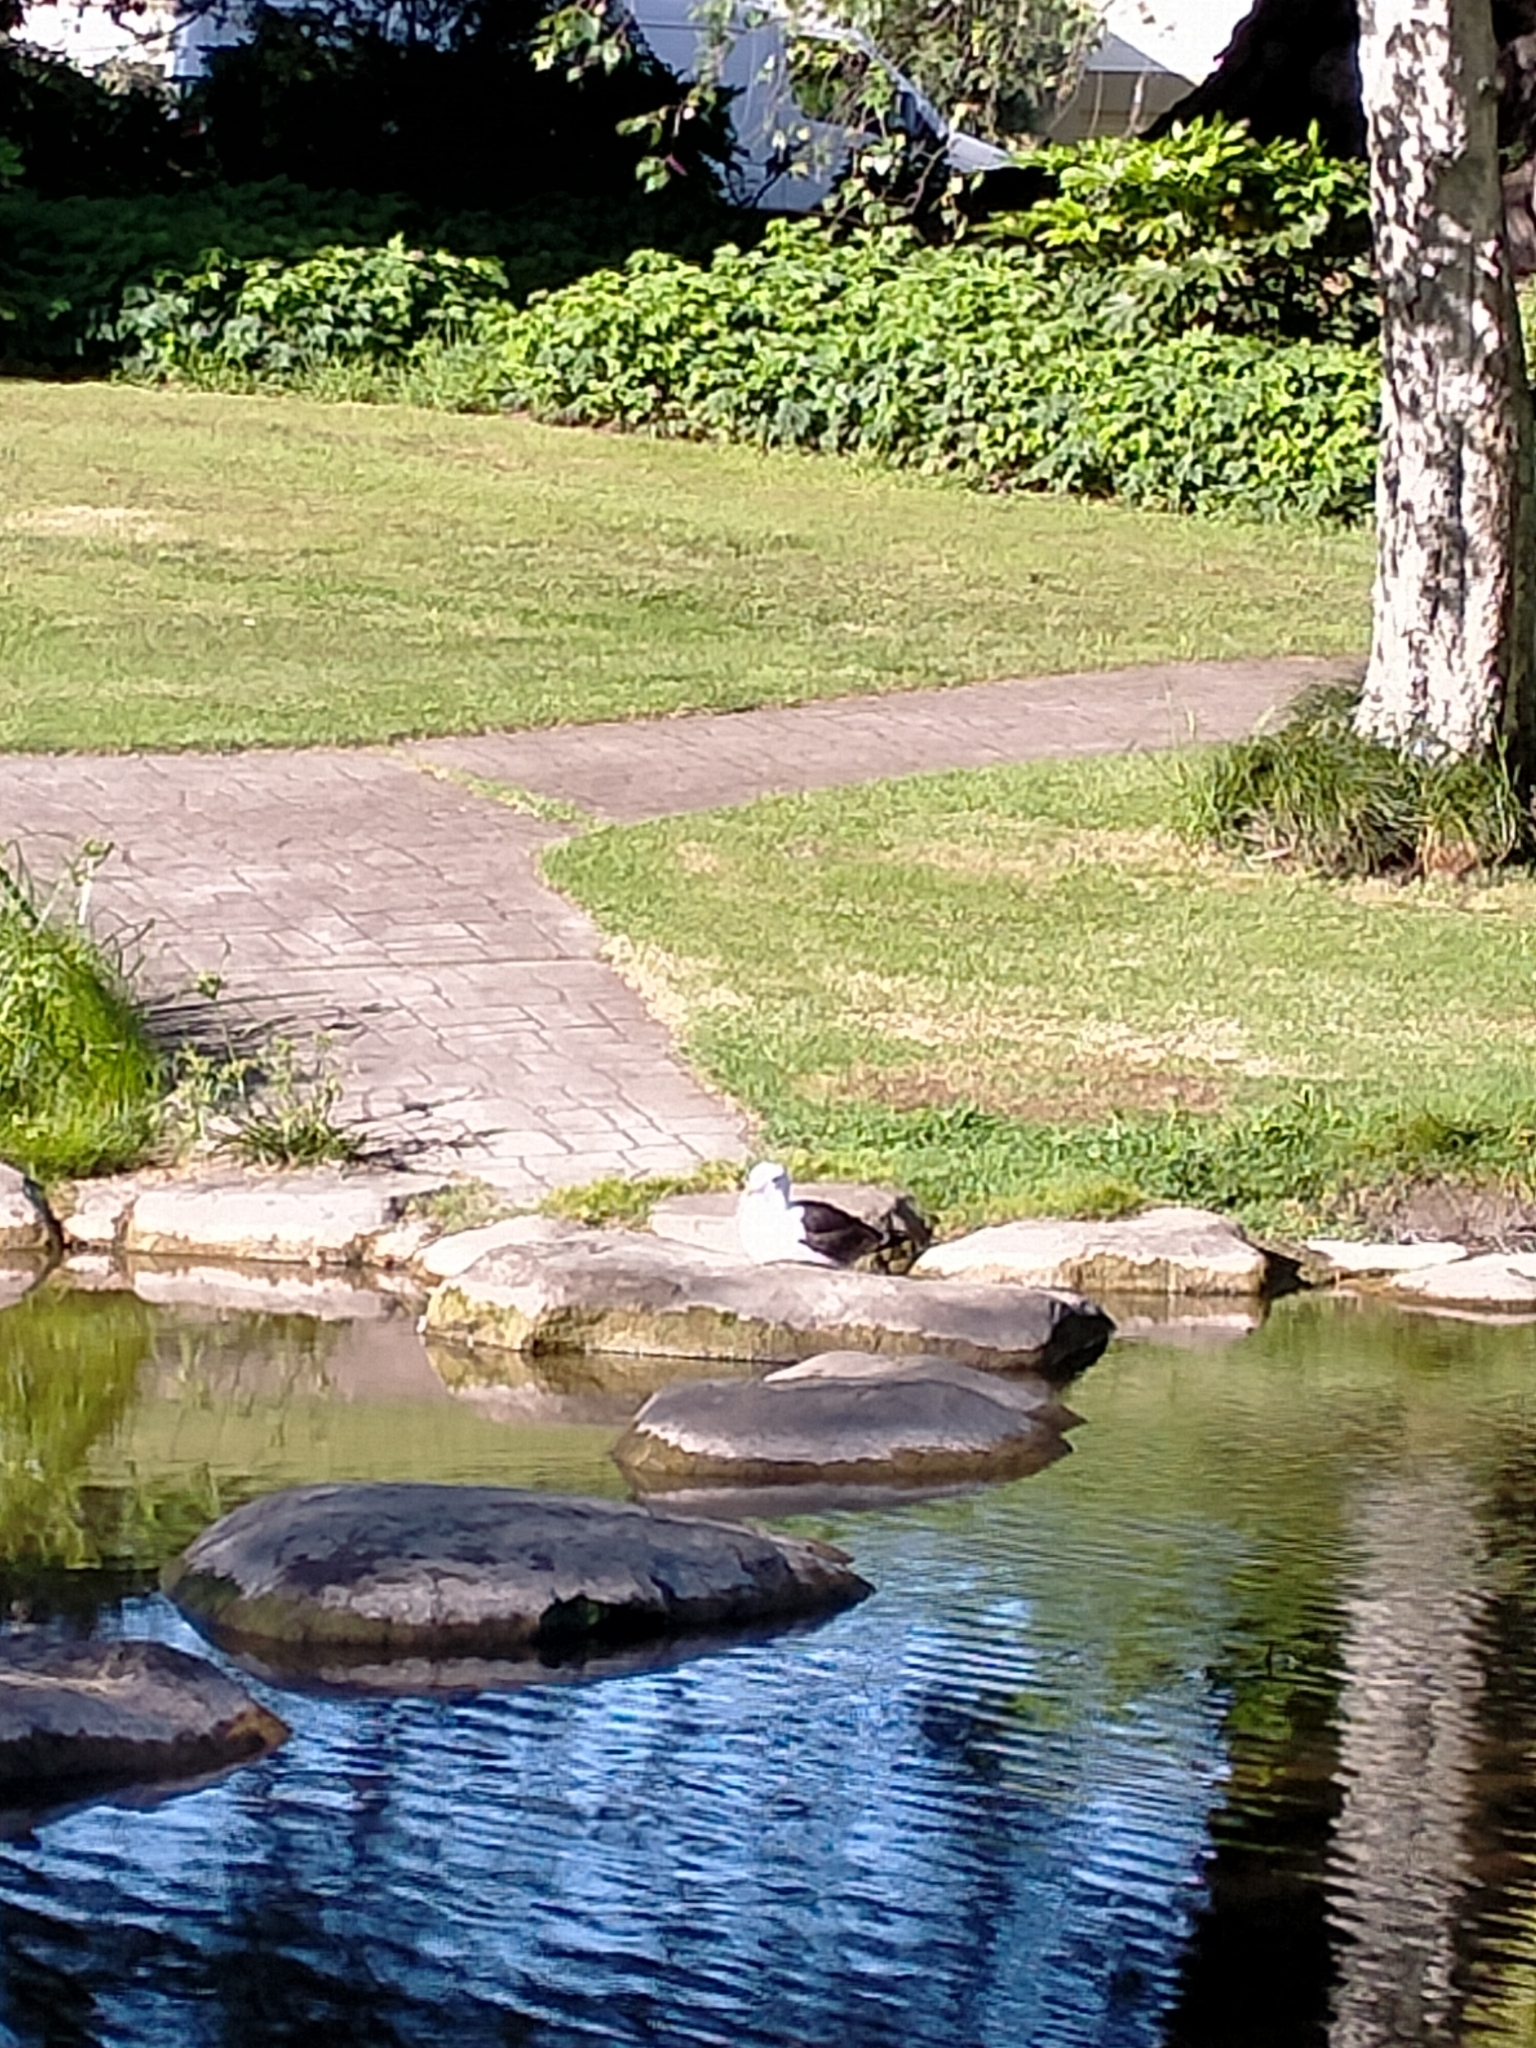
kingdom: Animalia
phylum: Chordata
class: Aves
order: Charadriiformes
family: Laridae
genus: Larus
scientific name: Larus dominicanus
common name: Kelp gull
